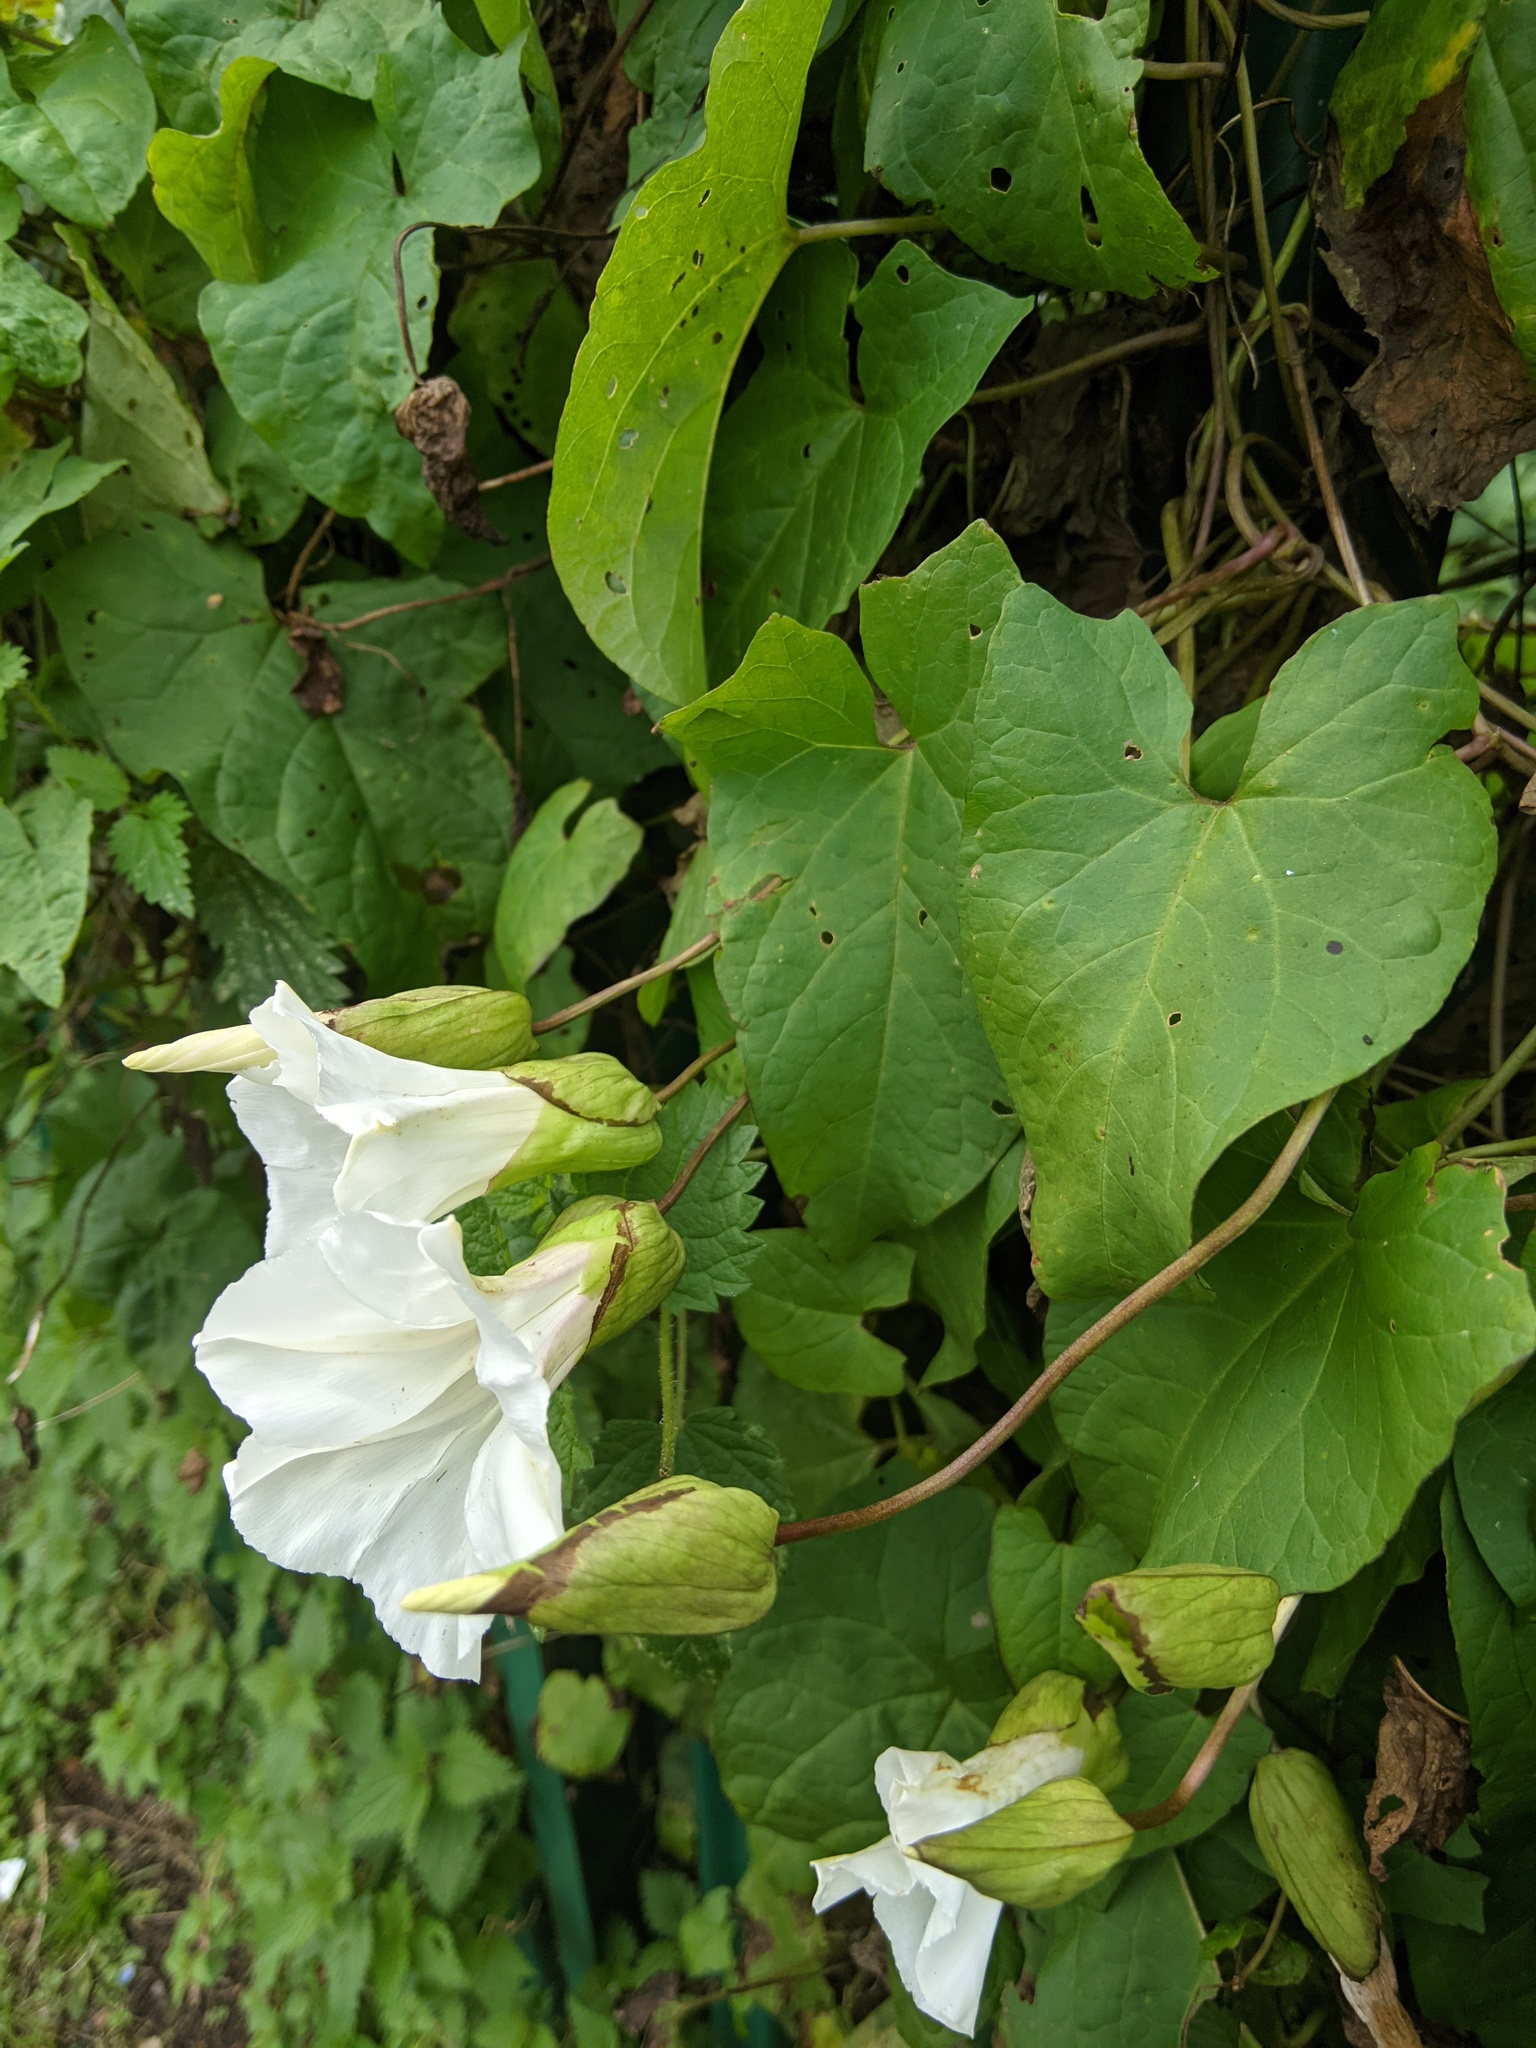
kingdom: Plantae
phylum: Tracheophyta
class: Magnoliopsida
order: Solanales
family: Convolvulaceae
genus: Calystegia
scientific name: Calystegia silvatica
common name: Large bindweed
